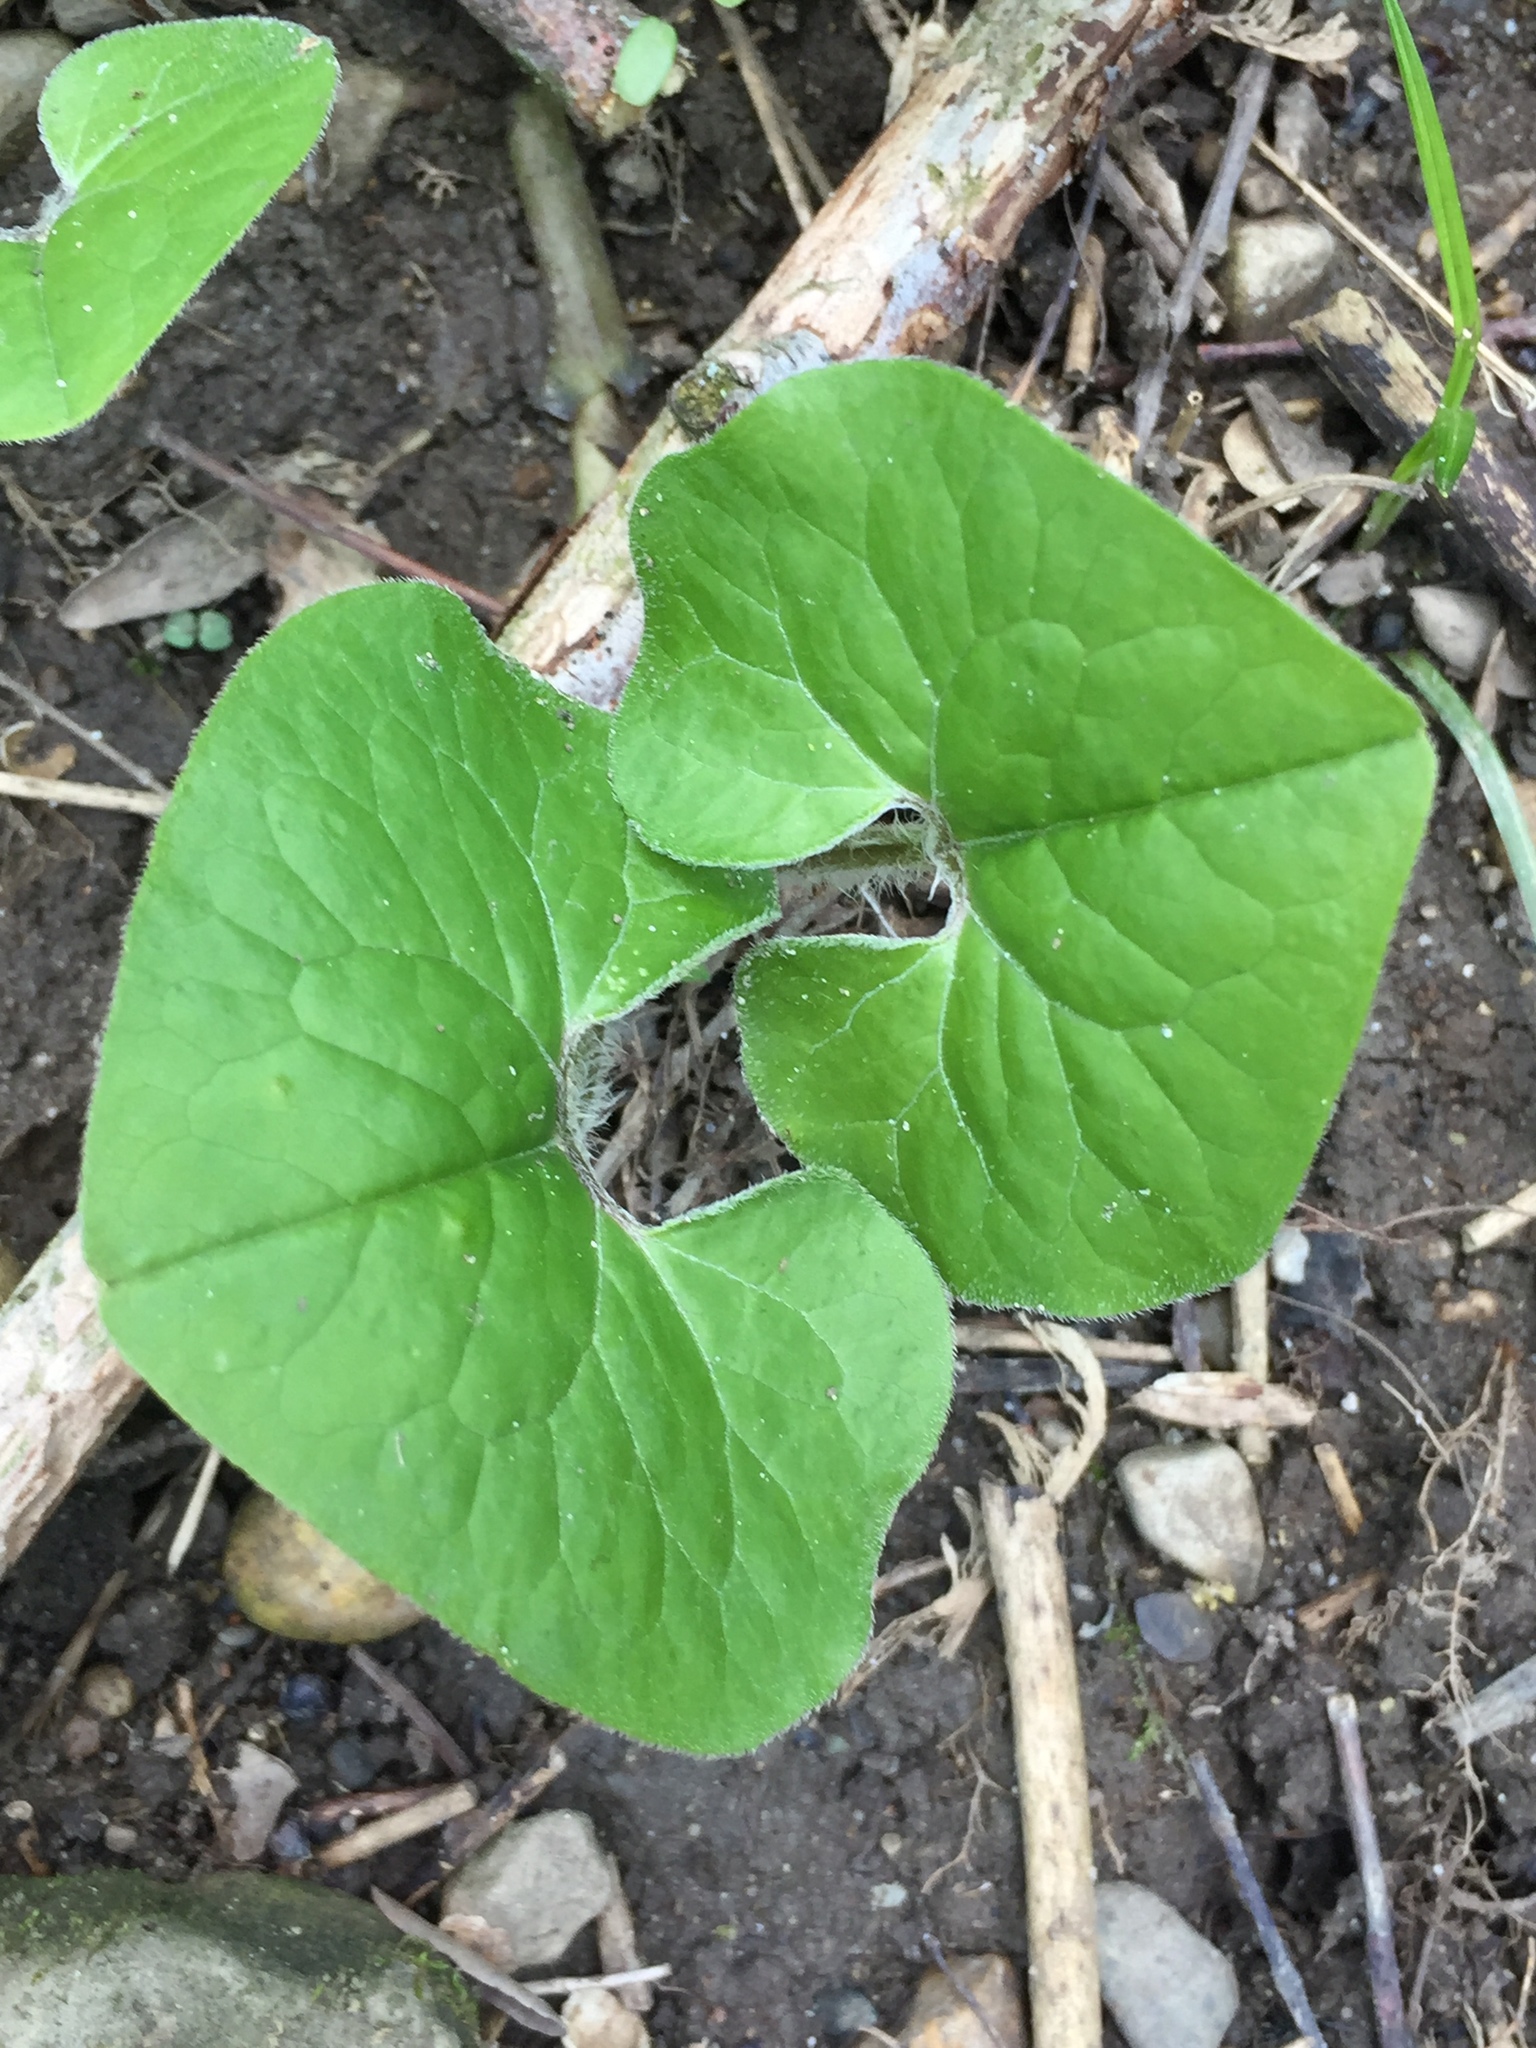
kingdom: Plantae
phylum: Tracheophyta
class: Magnoliopsida
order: Piperales
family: Aristolochiaceae
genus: Asarum
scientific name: Asarum canadense
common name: Wild ginger
